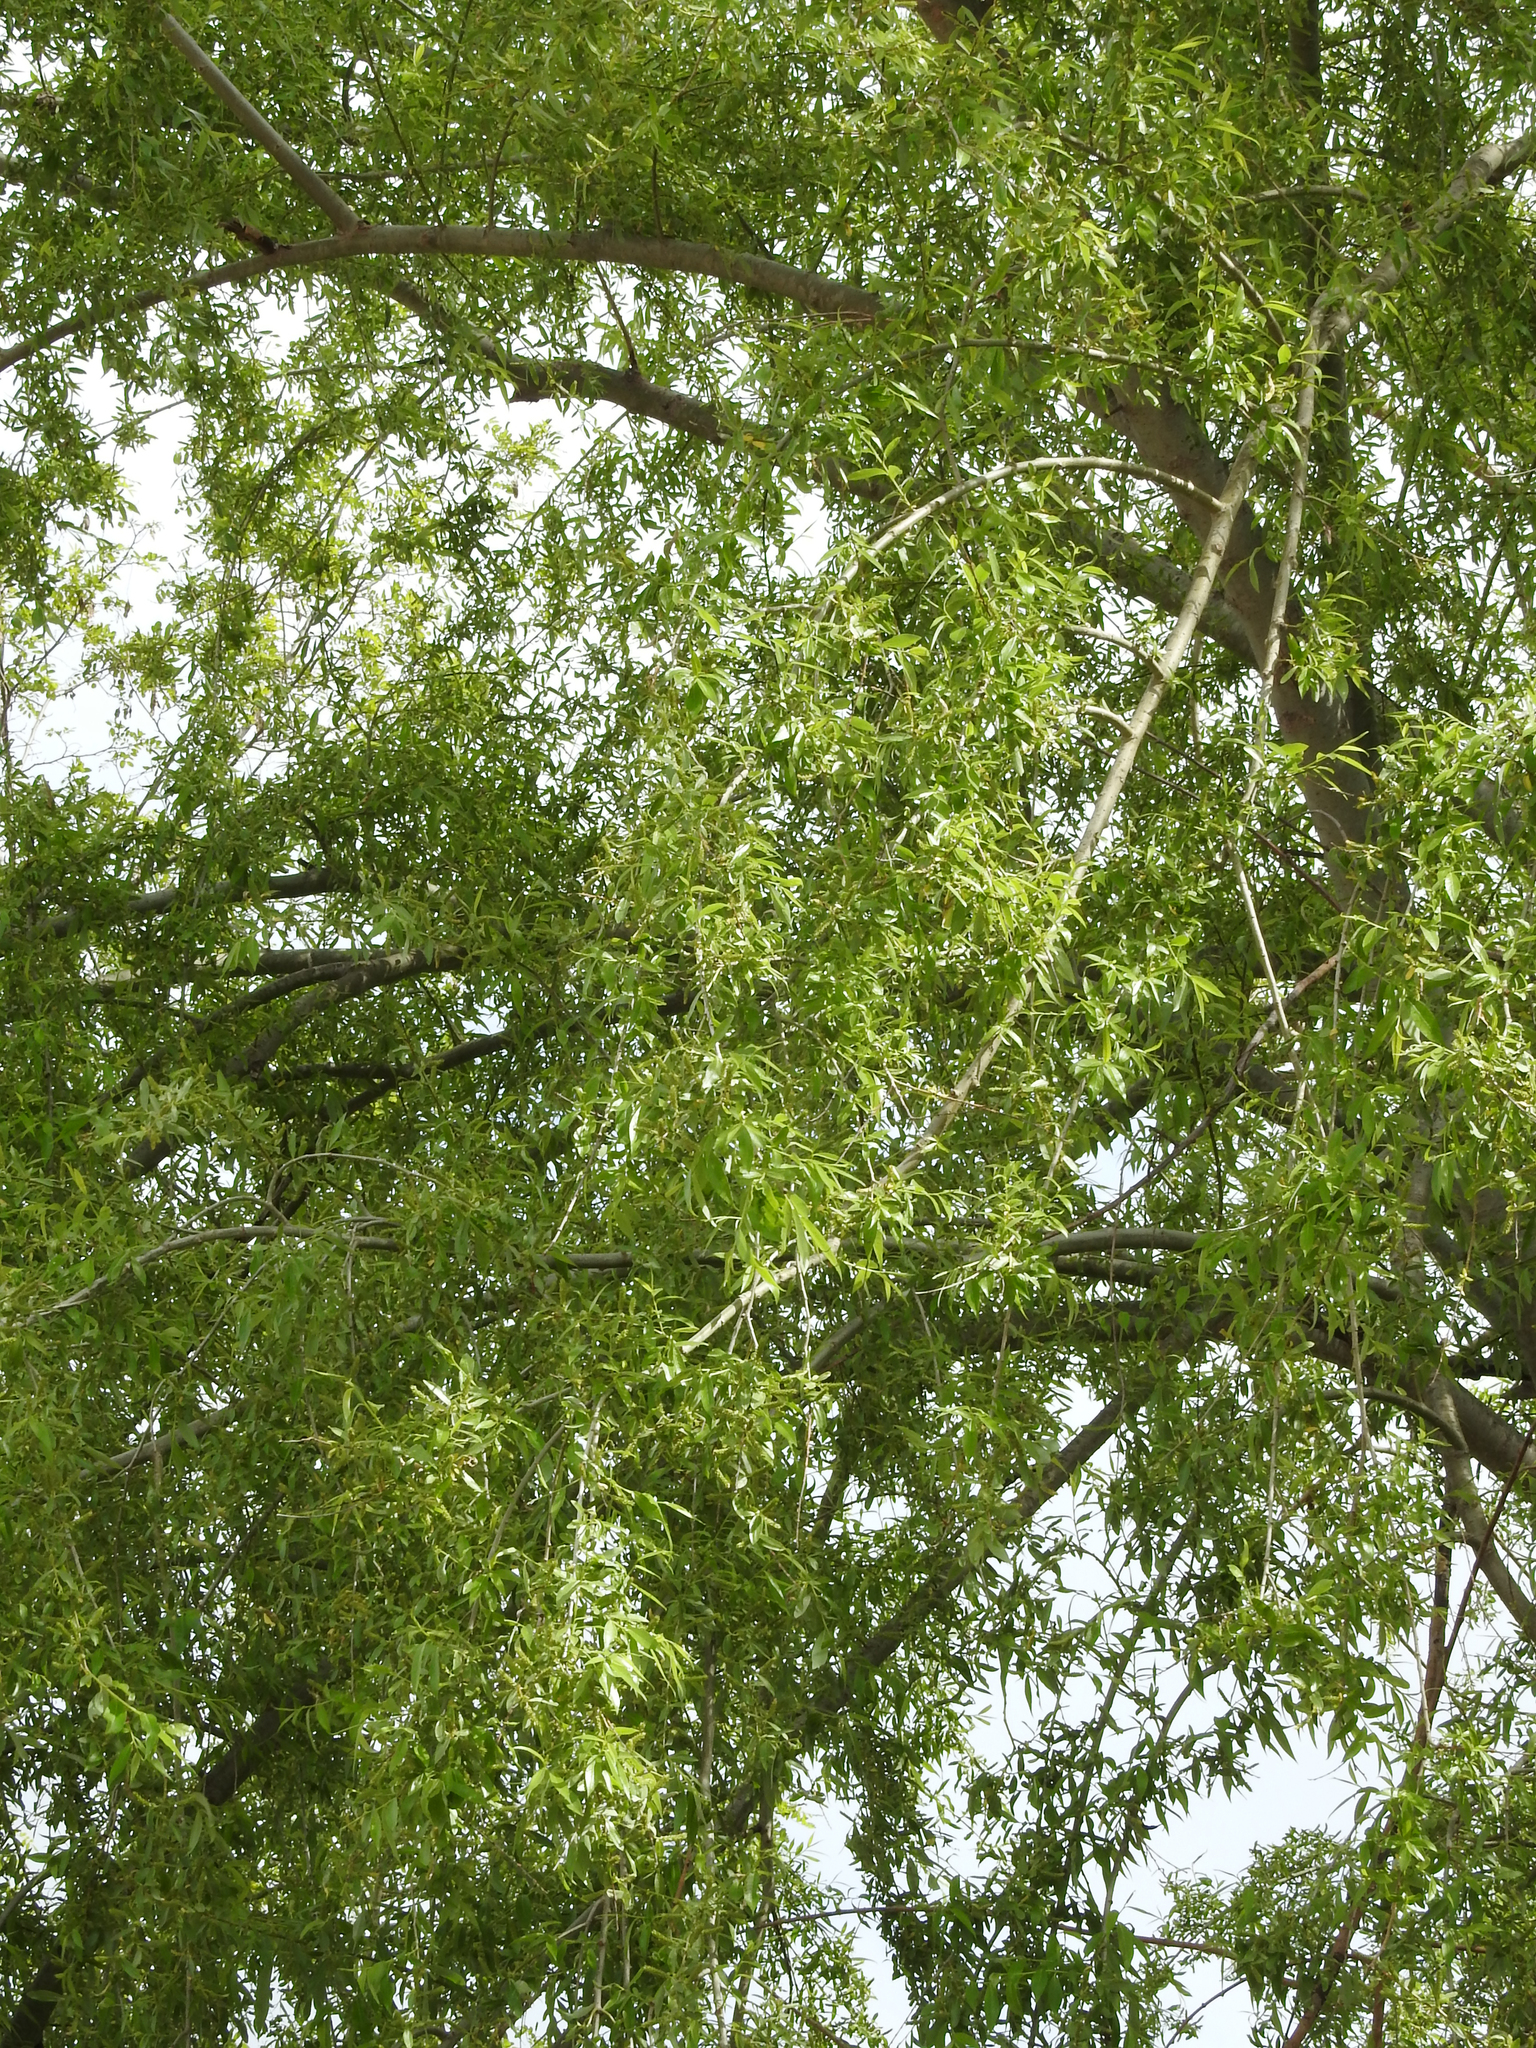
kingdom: Plantae
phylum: Tracheophyta
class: Magnoliopsida
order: Celastrales
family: Celastraceae
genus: Maytenus
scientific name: Maytenus boaria
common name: Mayten
